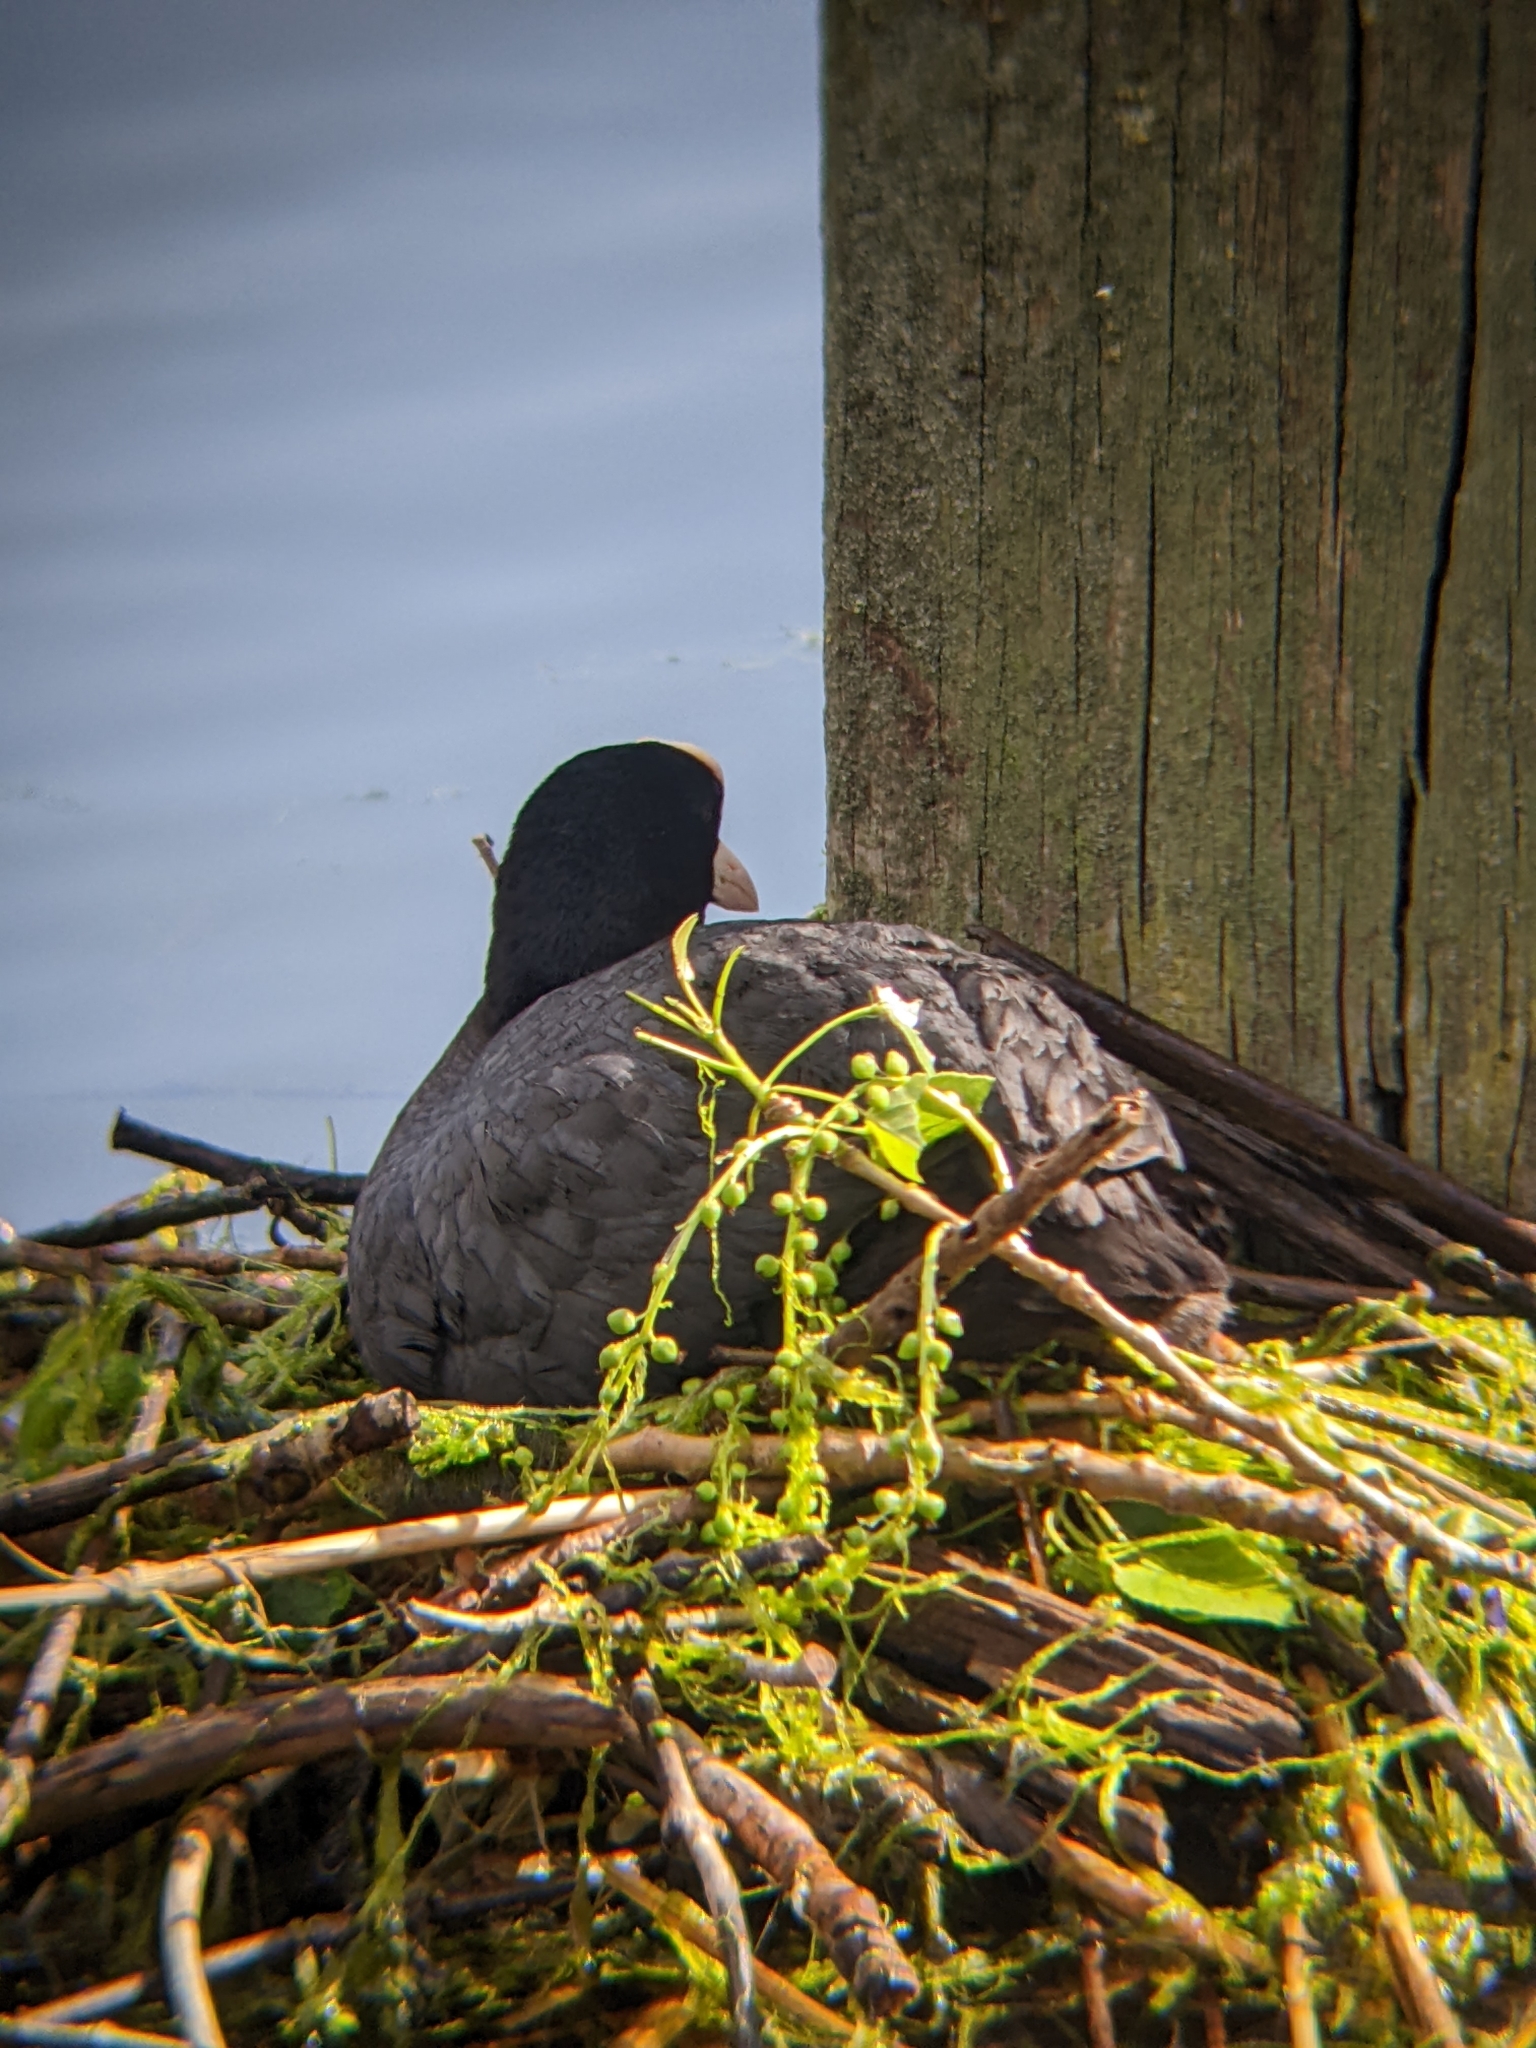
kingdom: Animalia
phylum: Chordata
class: Aves
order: Gruiformes
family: Rallidae
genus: Fulica
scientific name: Fulica atra
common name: Eurasian coot
